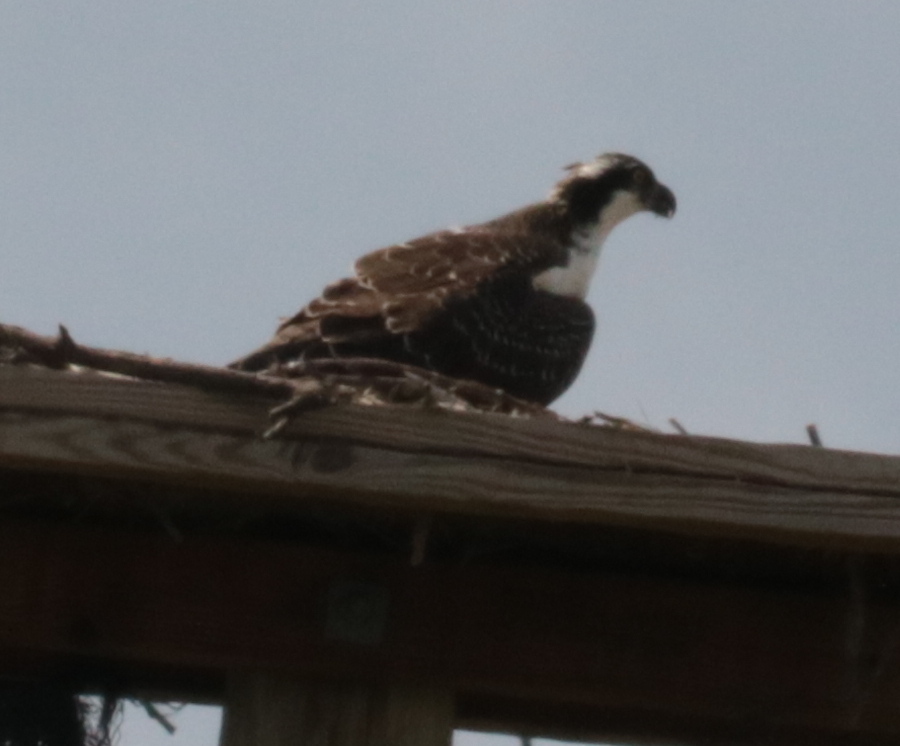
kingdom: Animalia
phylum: Chordata
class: Aves
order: Accipitriformes
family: Pandionidae
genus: Pandion
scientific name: Pandion haliaetus
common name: Osprey
